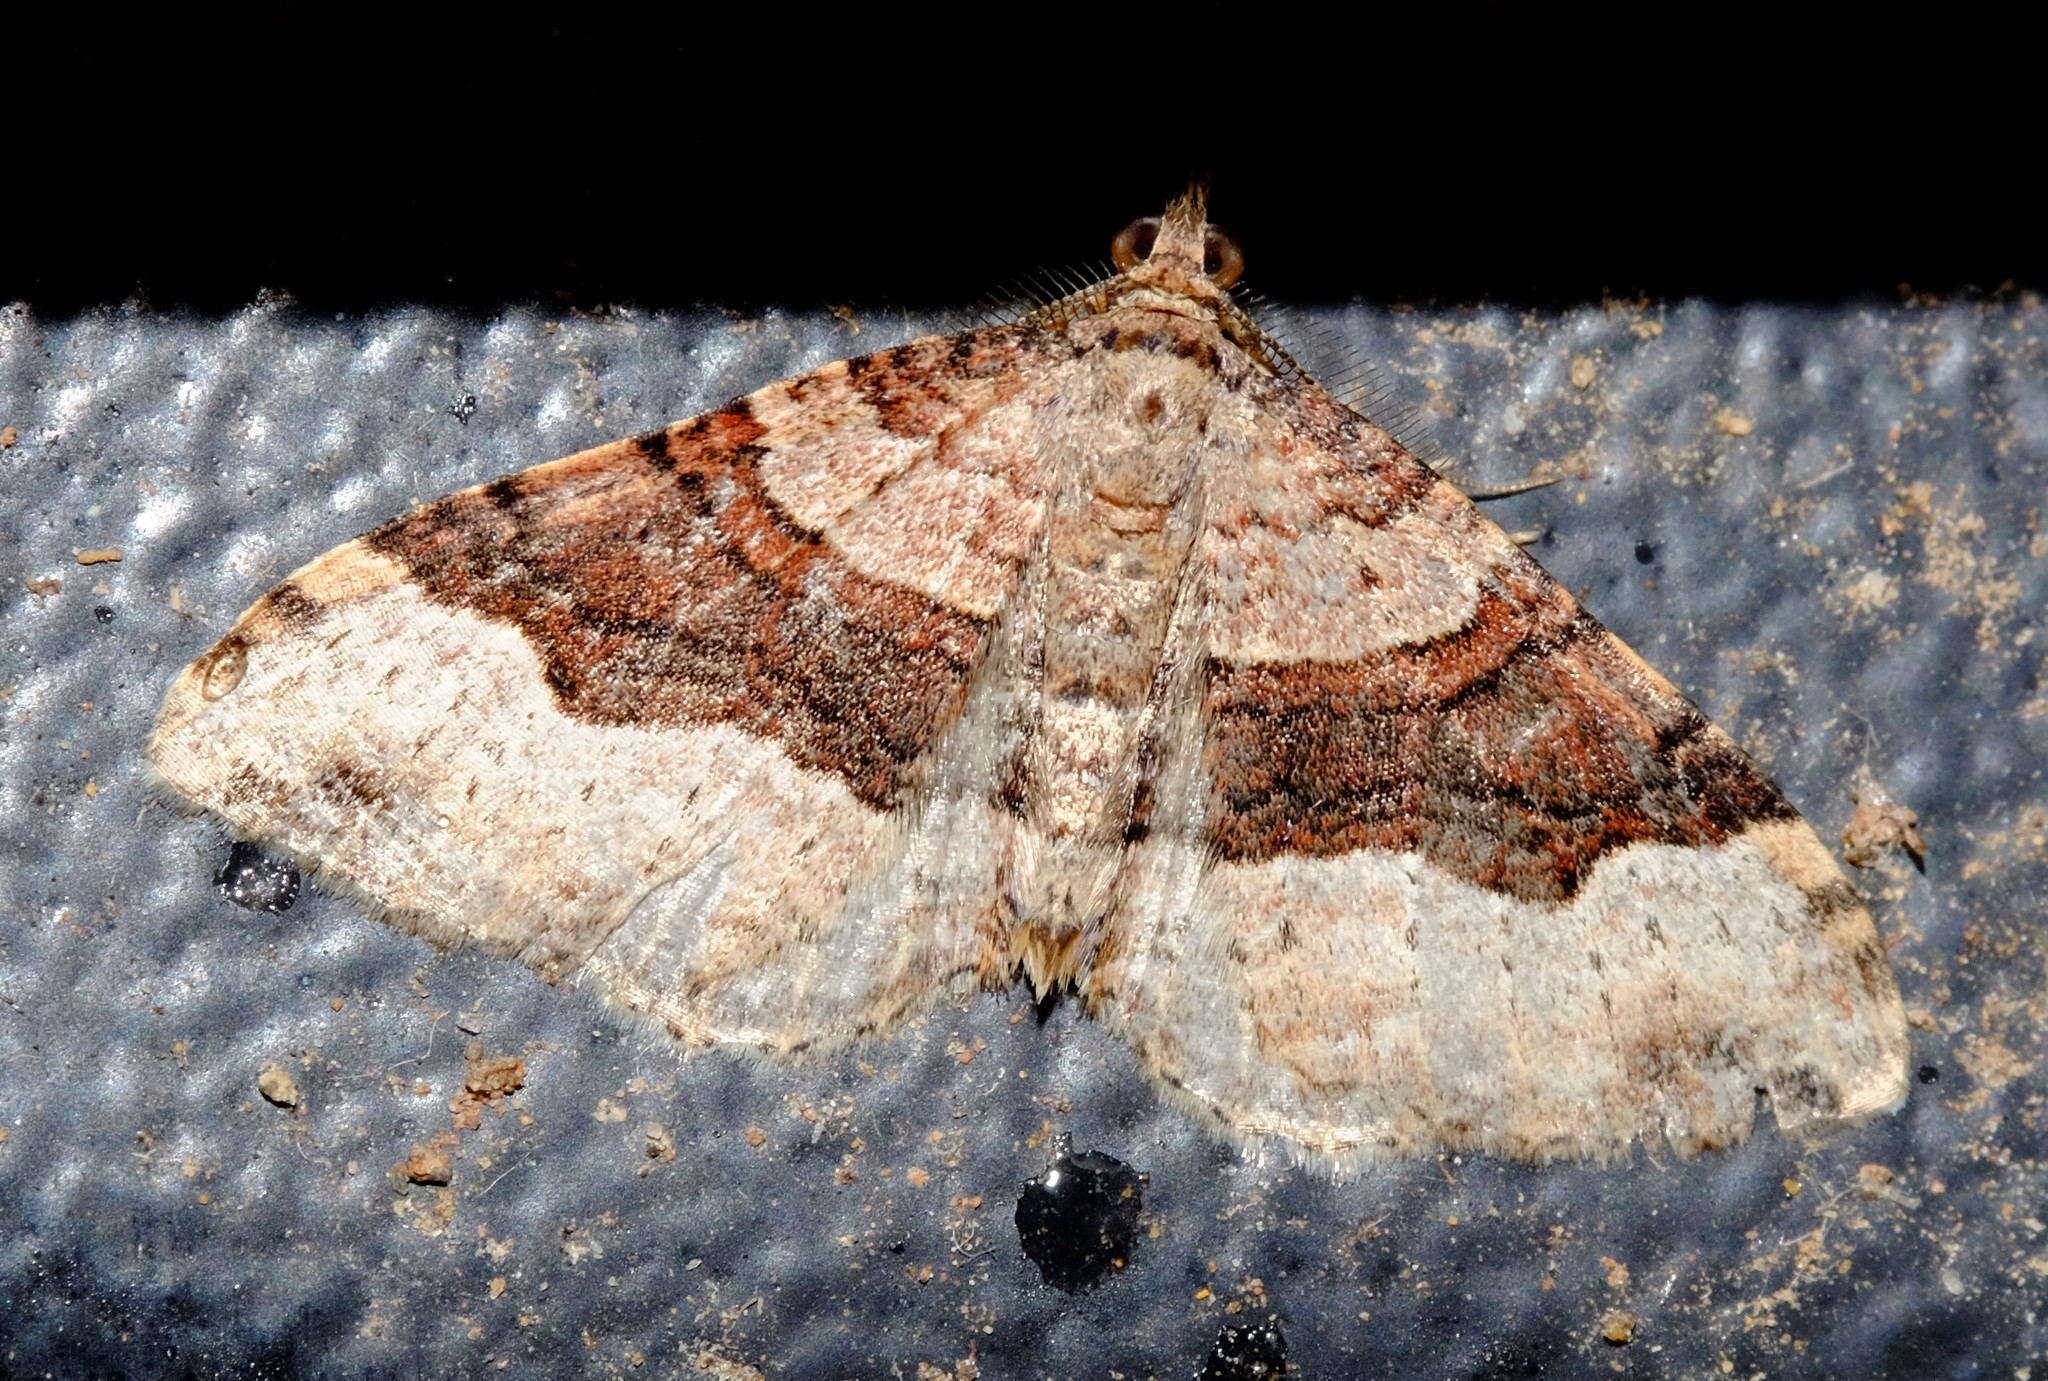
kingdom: Animalia
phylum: Arthropoda
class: Insecta
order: Lepidoptera
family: Geometridae
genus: Epyaxa
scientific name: Epyaxa subidaria
